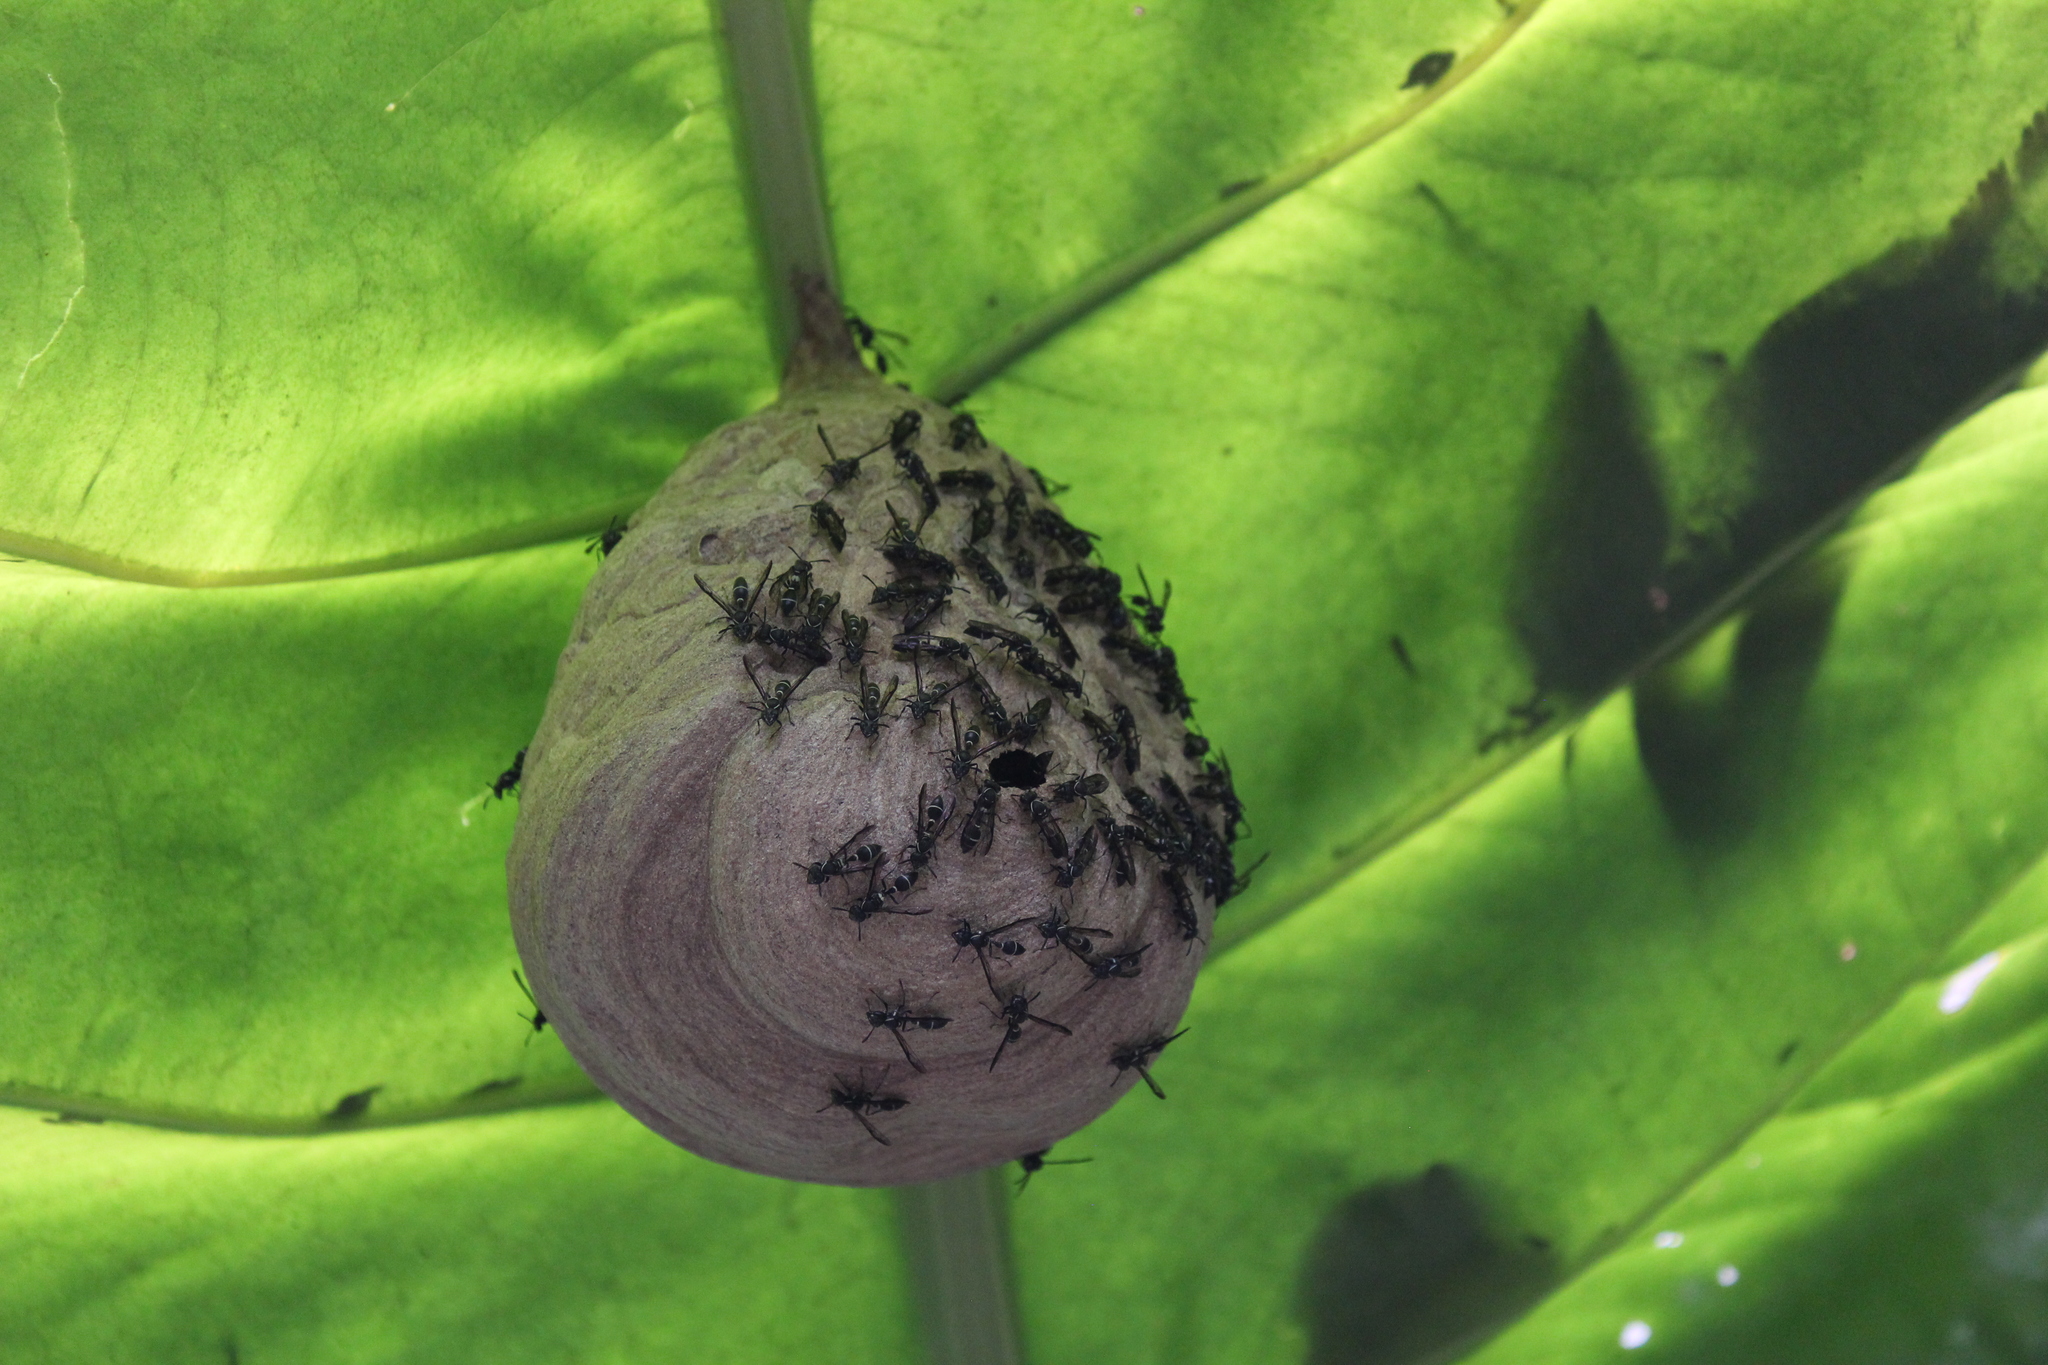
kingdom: Animalia
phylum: Arthropoda
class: Insecta
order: Hymenoptera
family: Eumenidae
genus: Polybia
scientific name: Polybia plebeja
